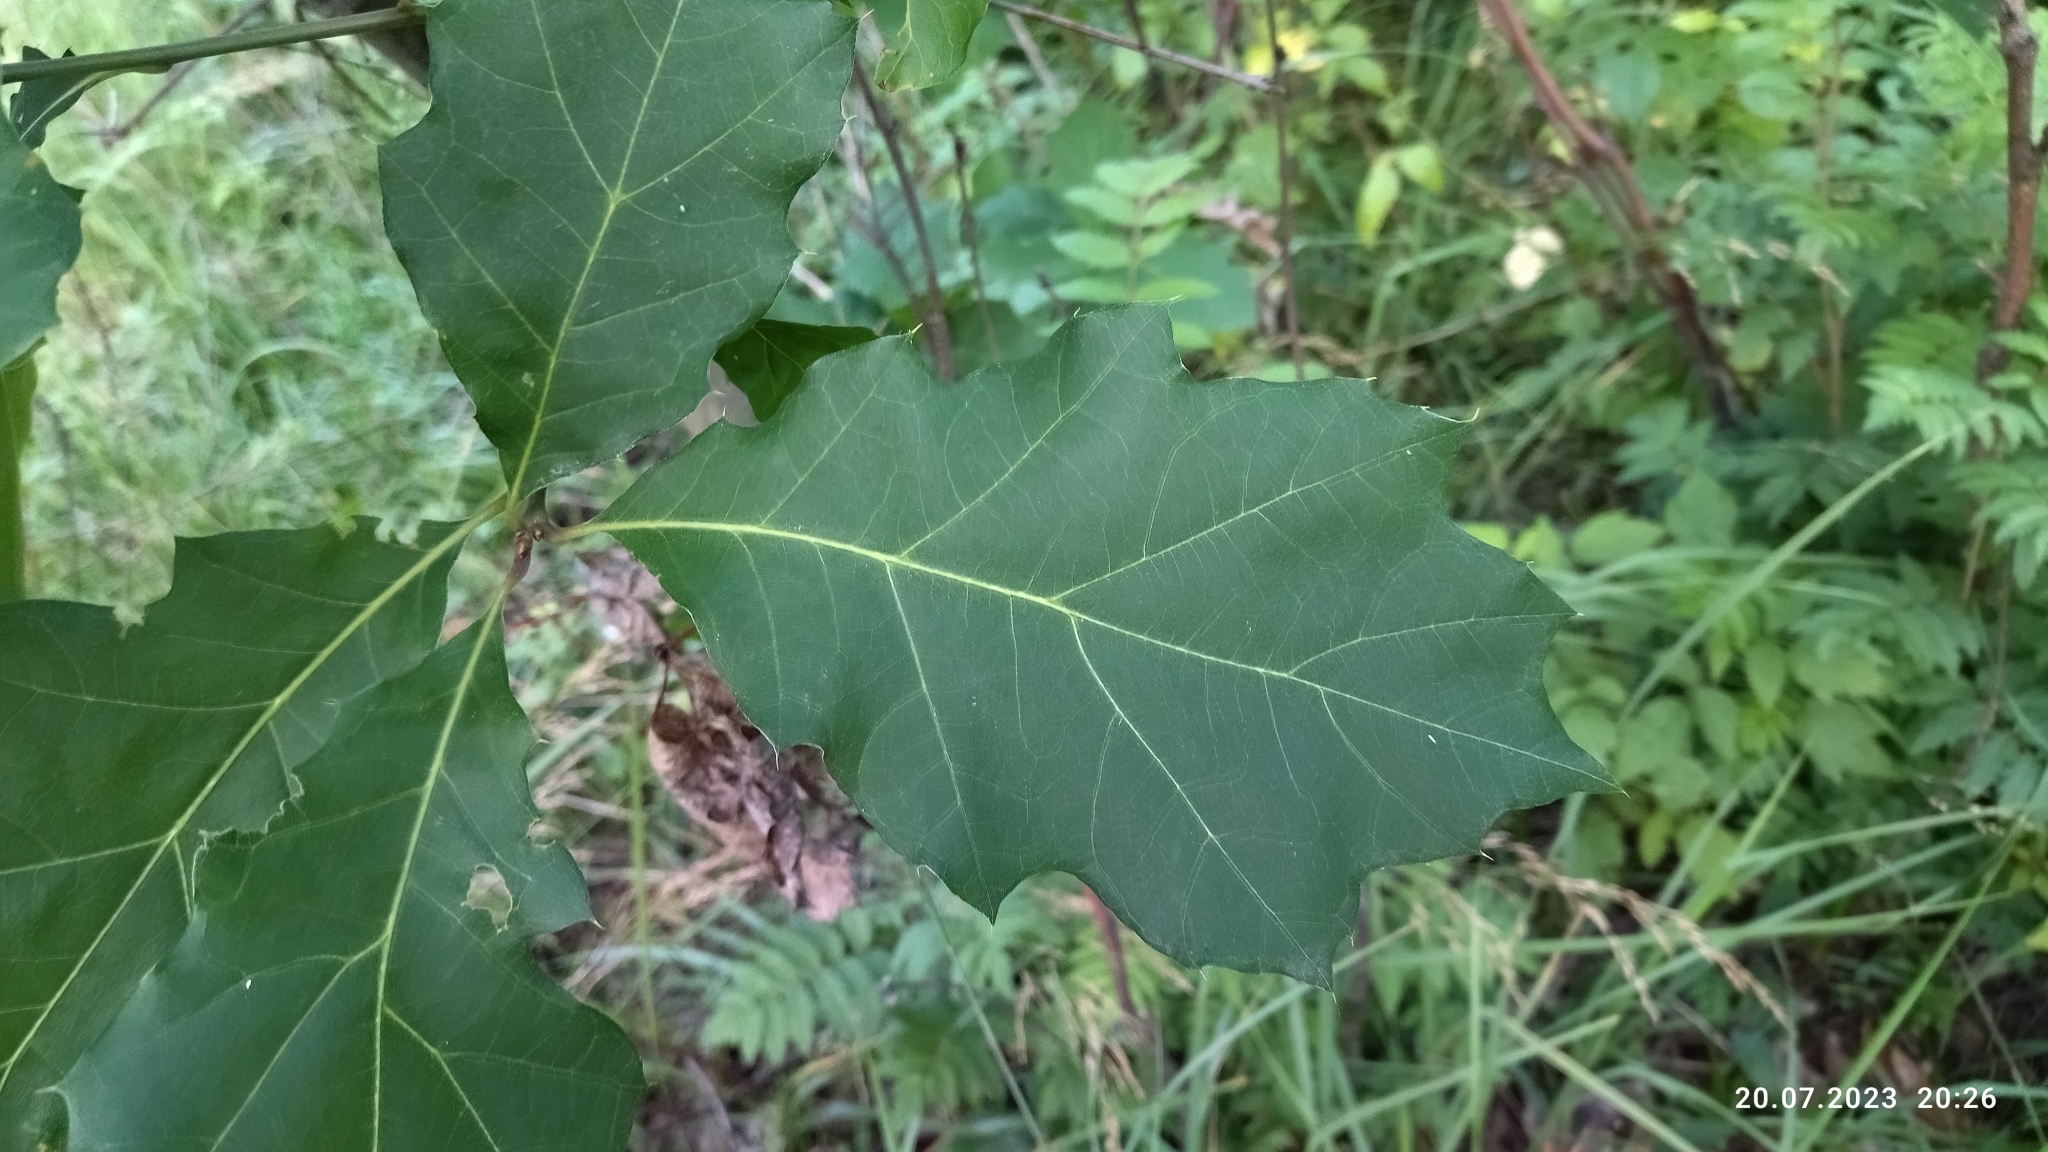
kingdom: Plantae
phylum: Tracheophyta
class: Magnoliopsida
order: Fagales
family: Fagaceae
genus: Quercus
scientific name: Quercus rubra
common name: Red oak
